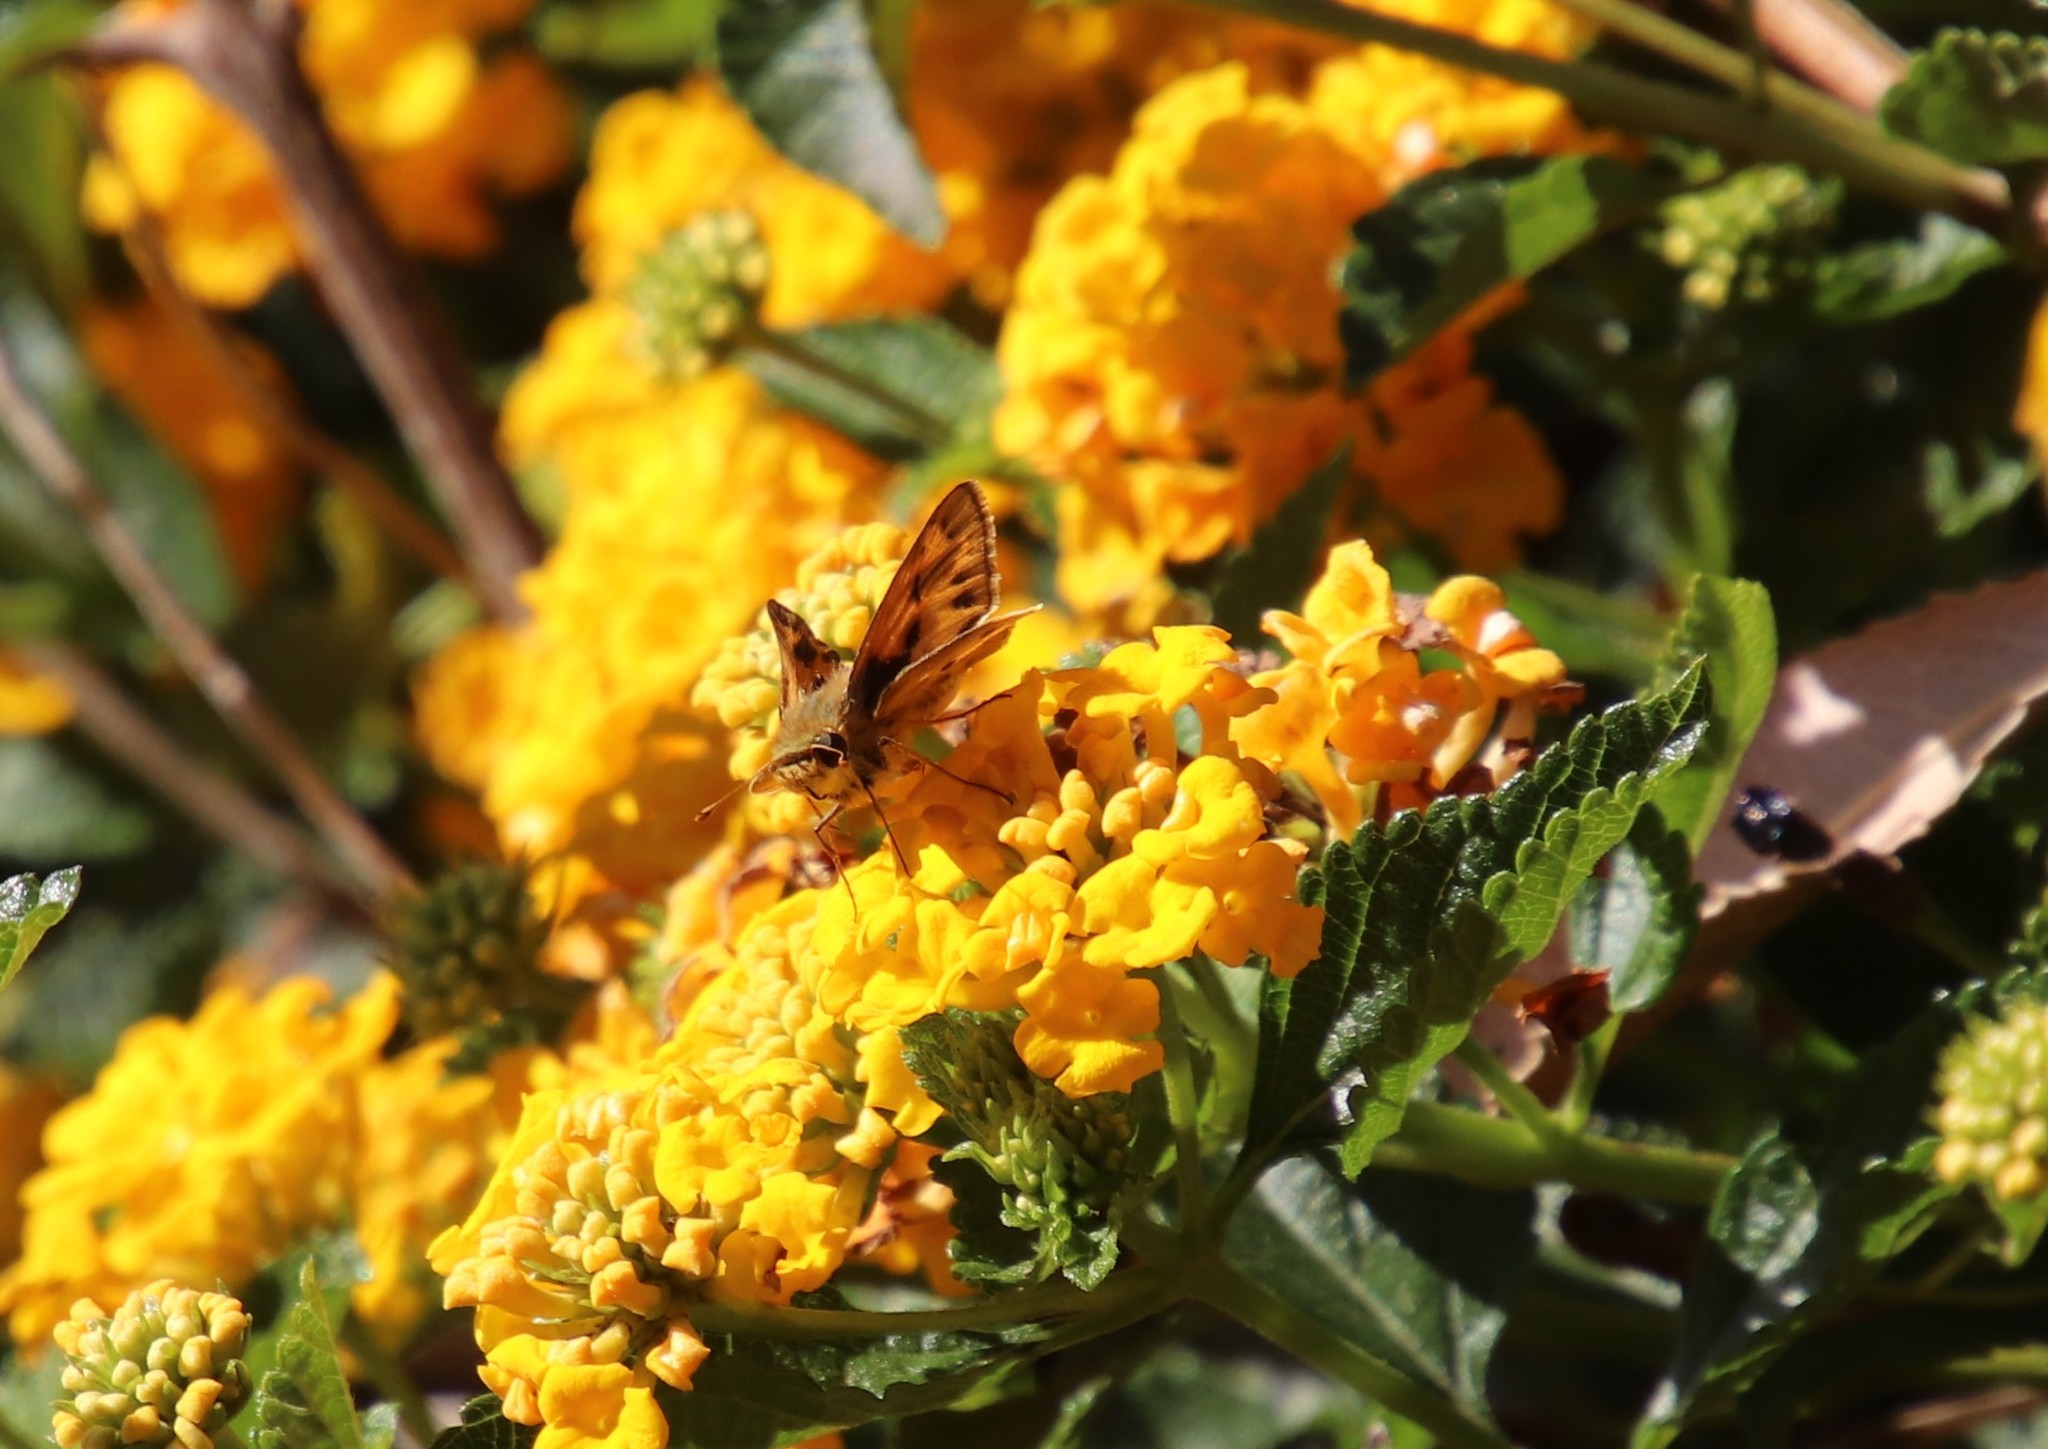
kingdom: Animalia
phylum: Arthropoda
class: Insecta
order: Lepidoptera
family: Hesperiidae
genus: Hylephila
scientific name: Hylephila phyleus
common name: Fiery skipper
